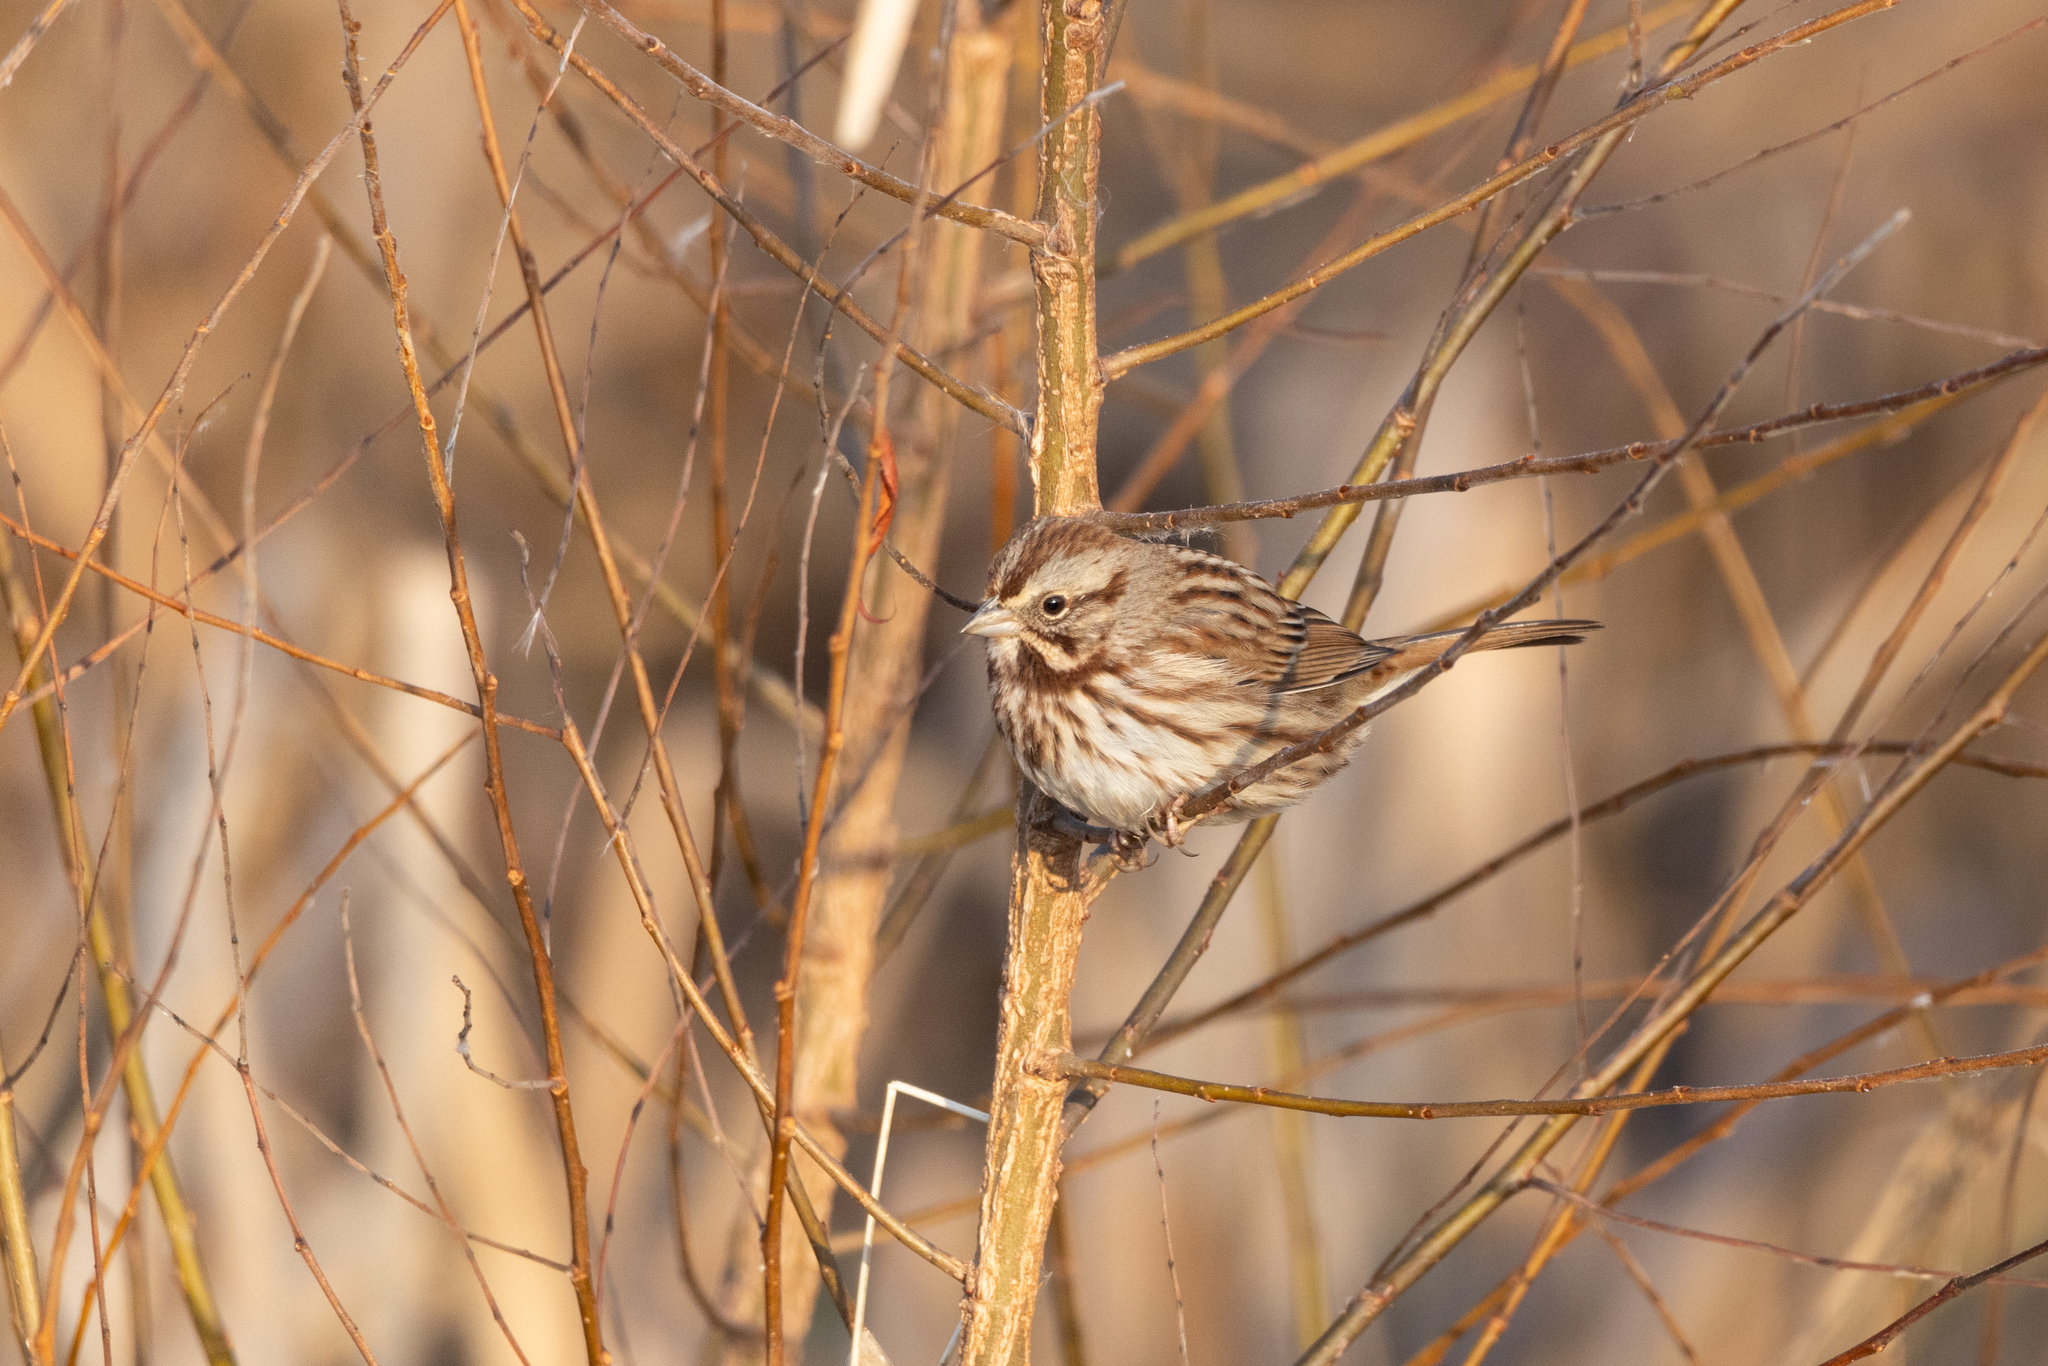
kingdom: Animalia
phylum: Chordata
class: Aves
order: Passeriformes
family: Passerellidae
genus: Melospiza
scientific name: Melospiza melodia
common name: Song sparrow
